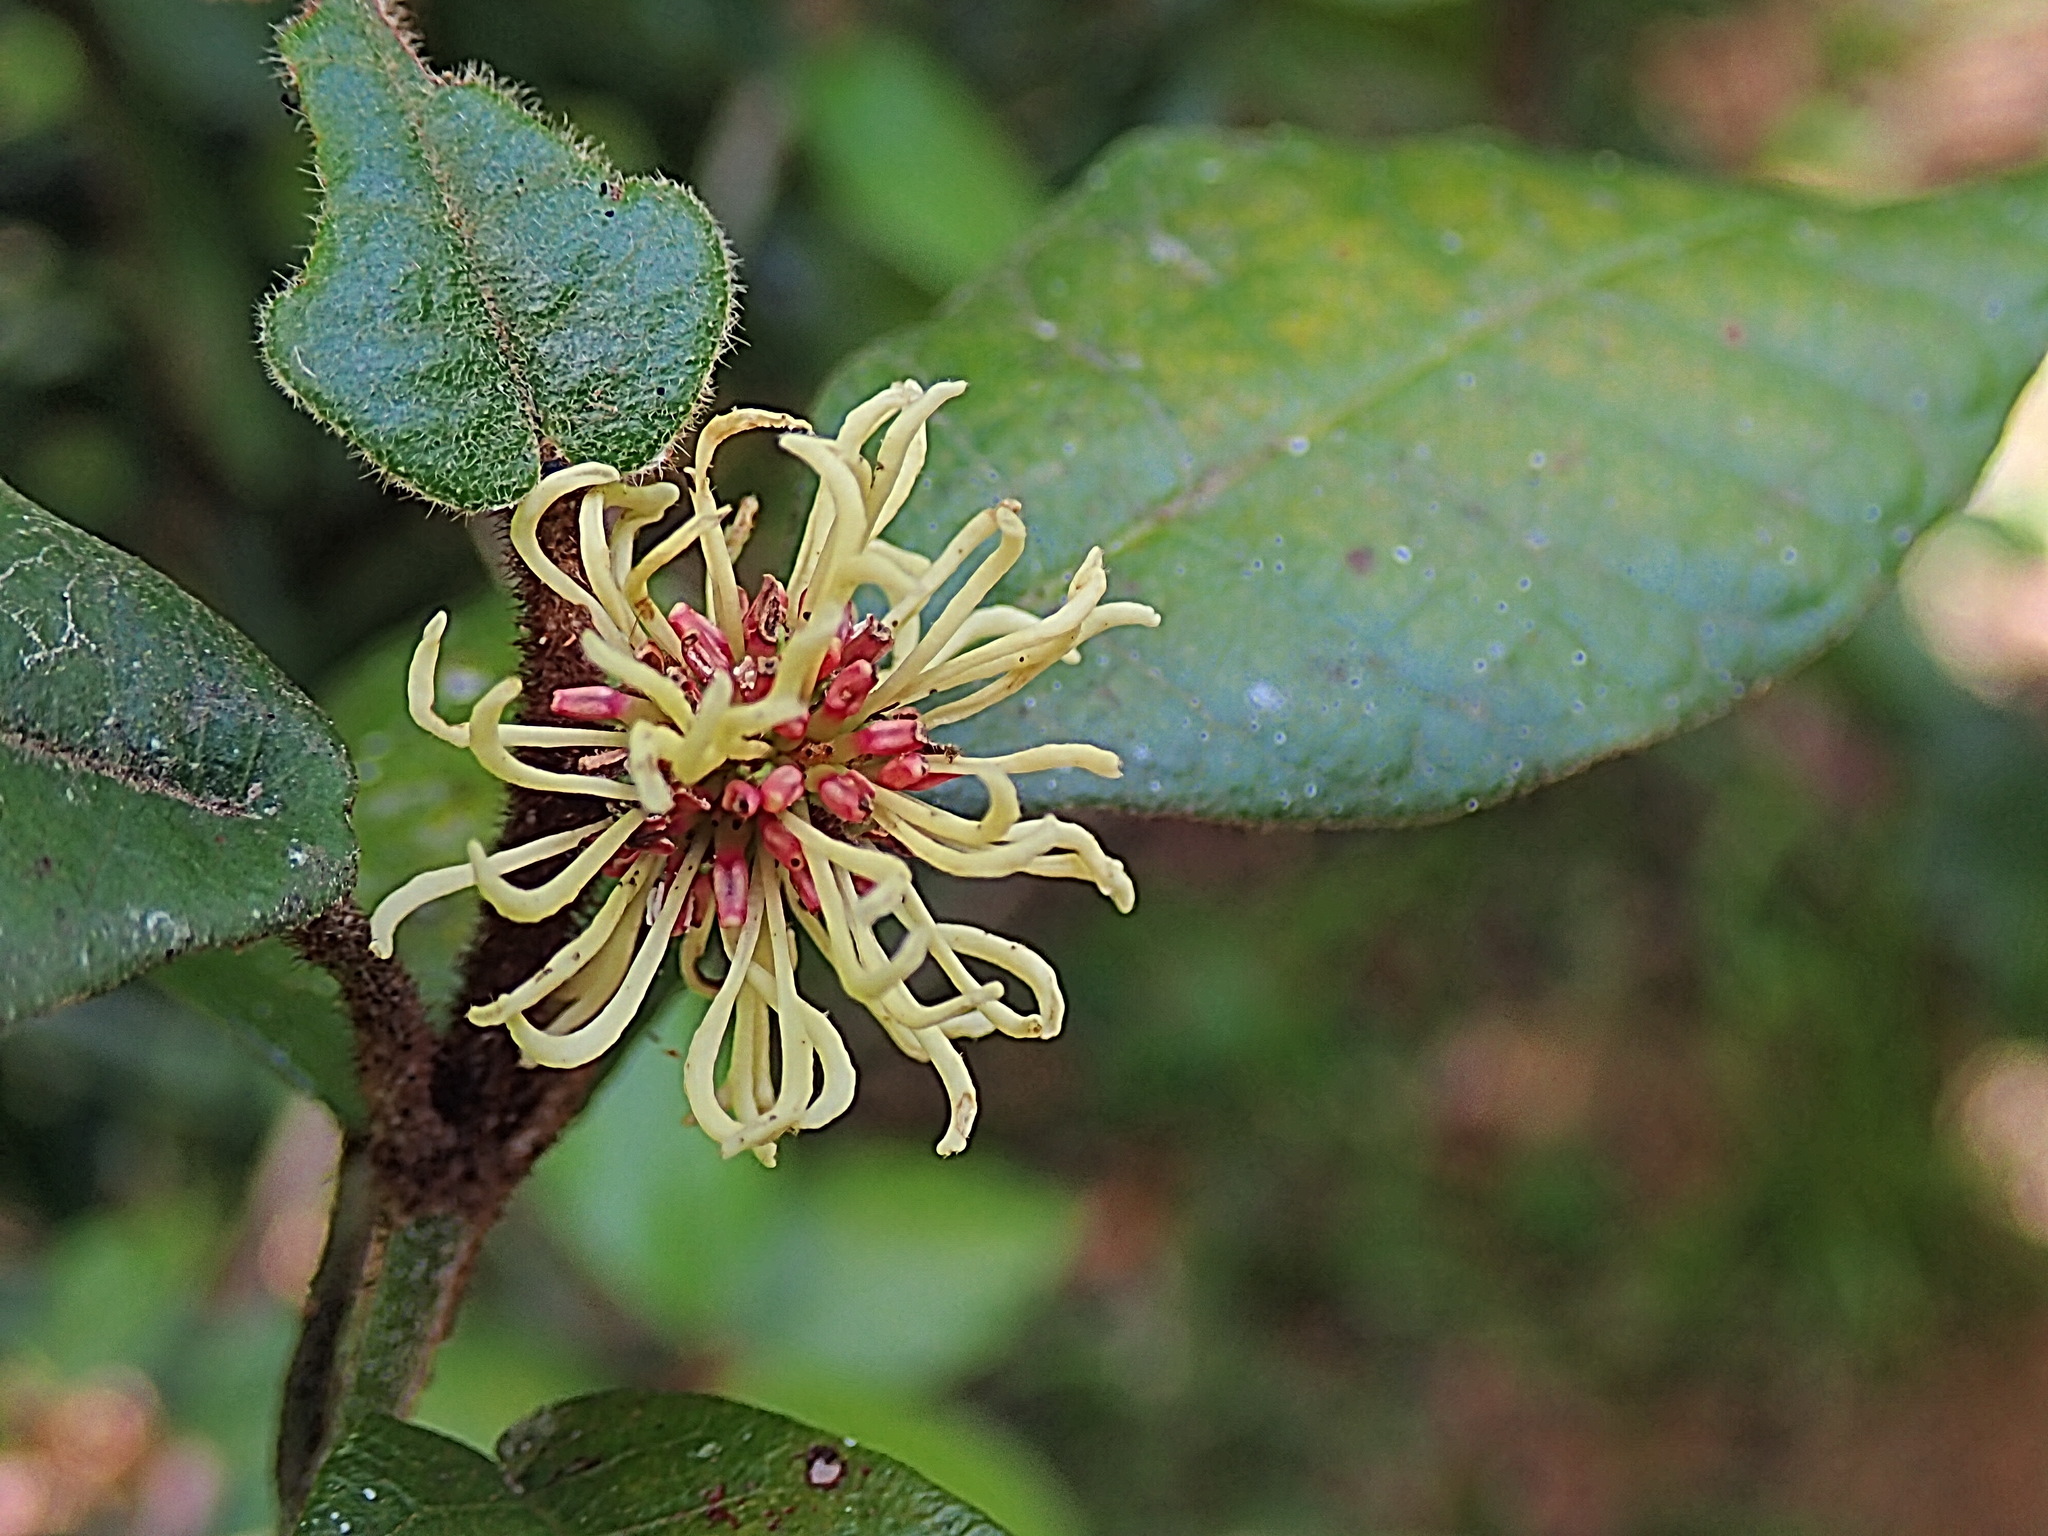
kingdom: Plantae
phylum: Tracheophyta
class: Magnoliopsida
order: Saxifragales
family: Hamamelidaceae
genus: Trichocladus
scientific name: Trichocladus crinitus
